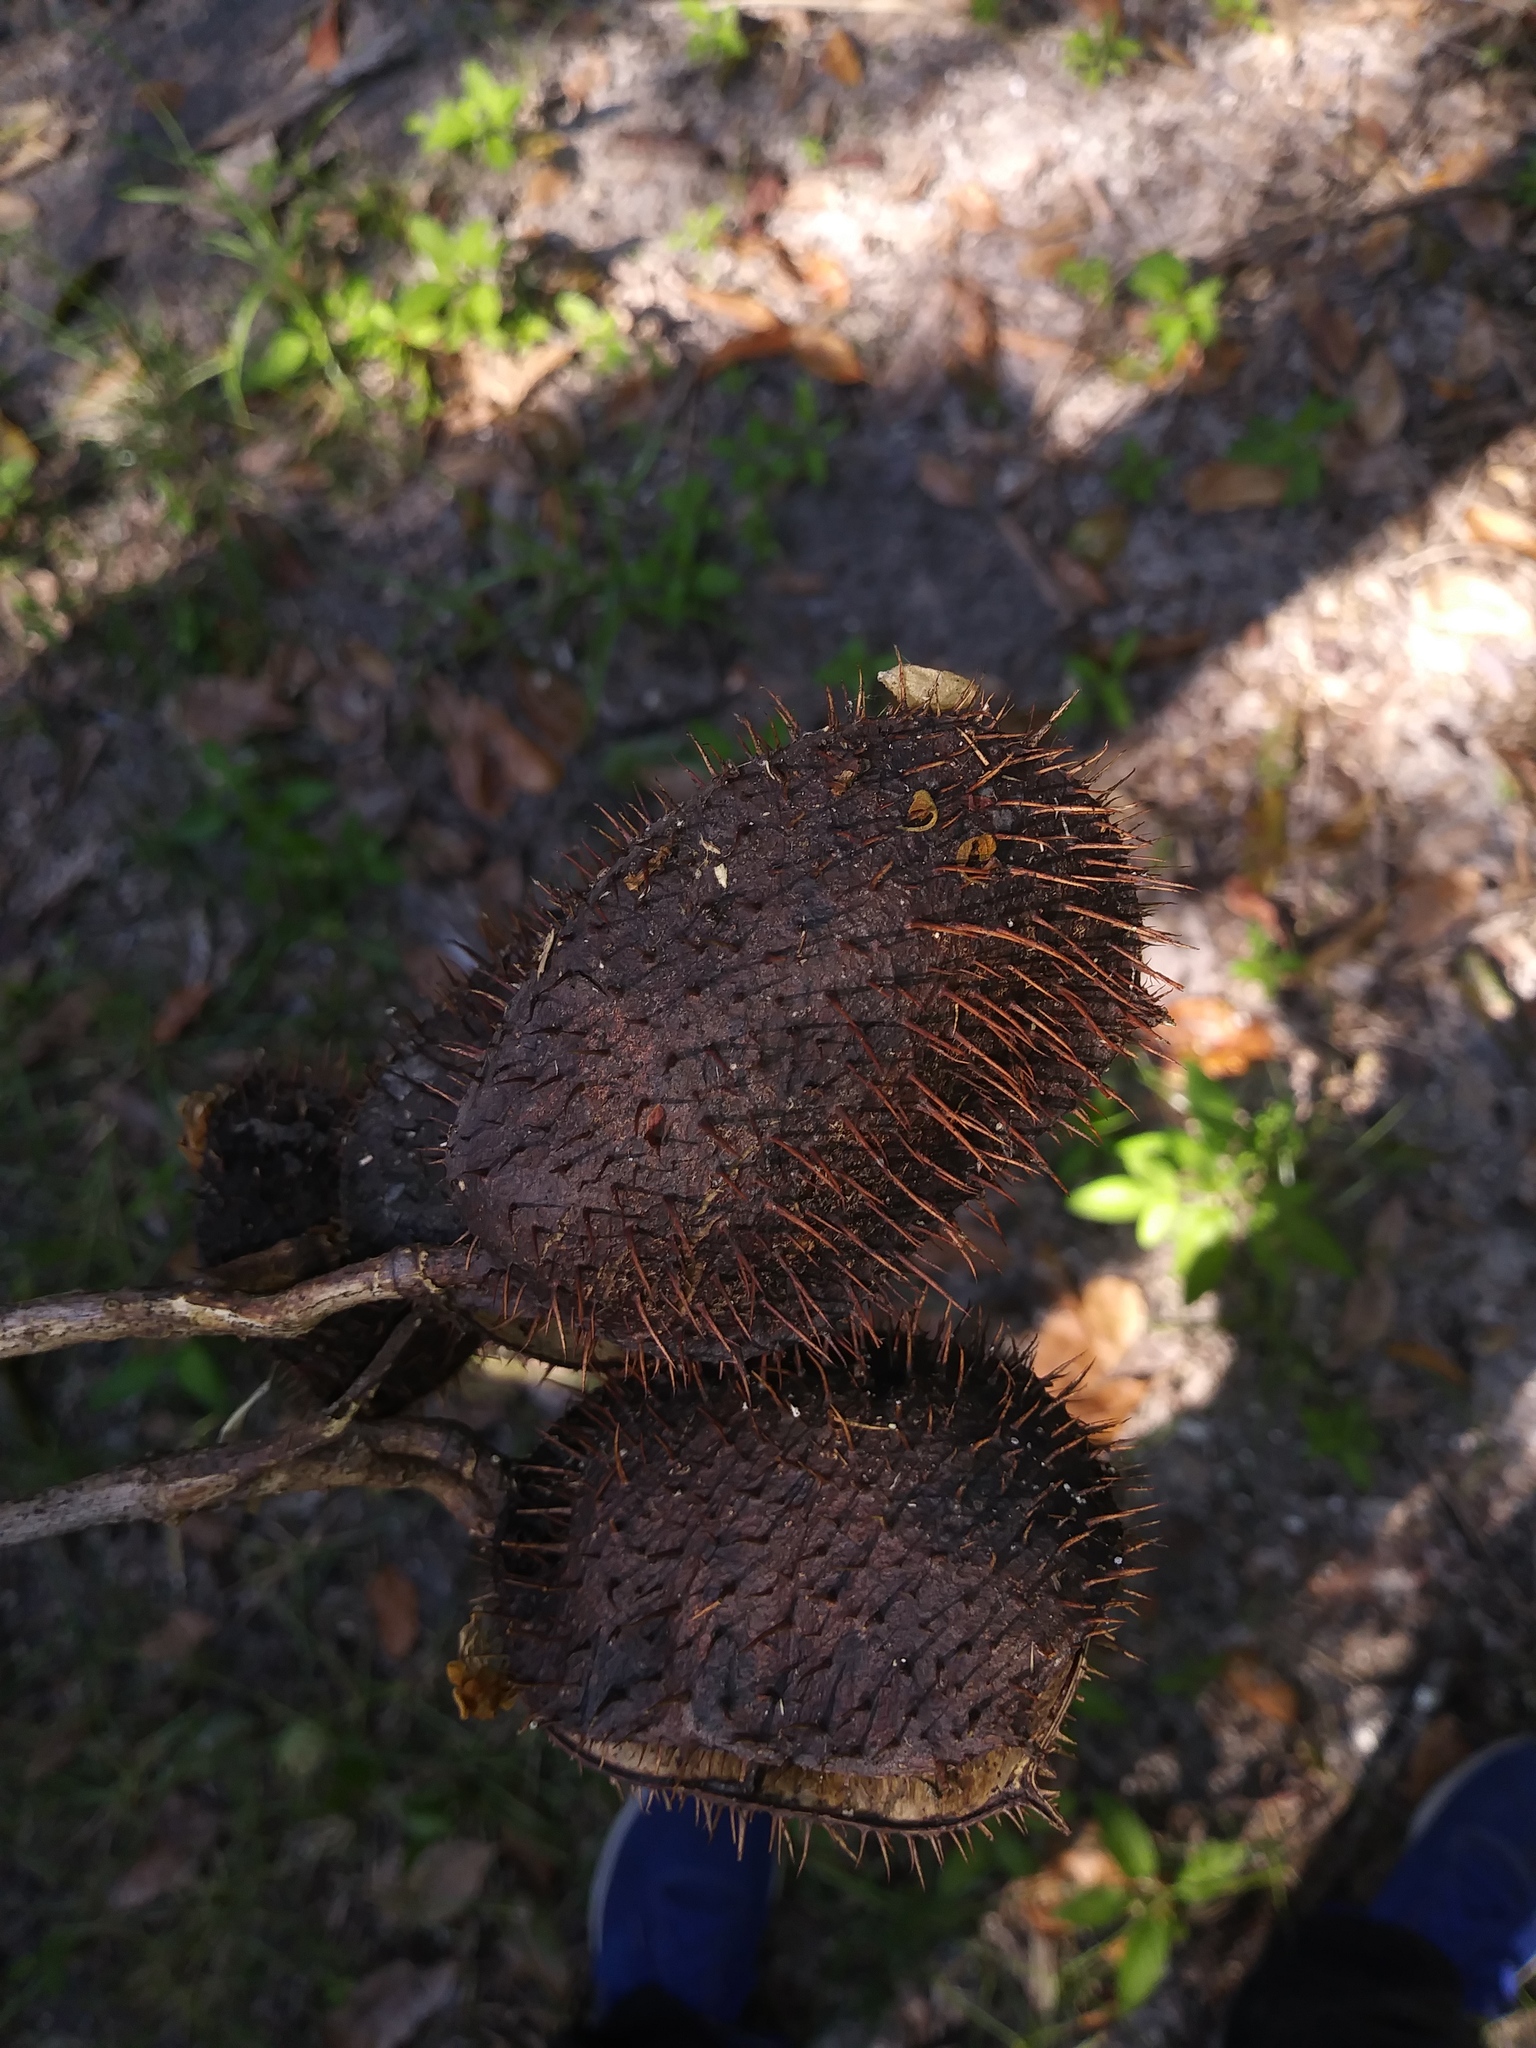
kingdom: Plantae
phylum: Tracheophyta
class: Magnoliopsida
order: Fabales
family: Fabaceae
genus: Guilandina
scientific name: Guilandina bonduc
